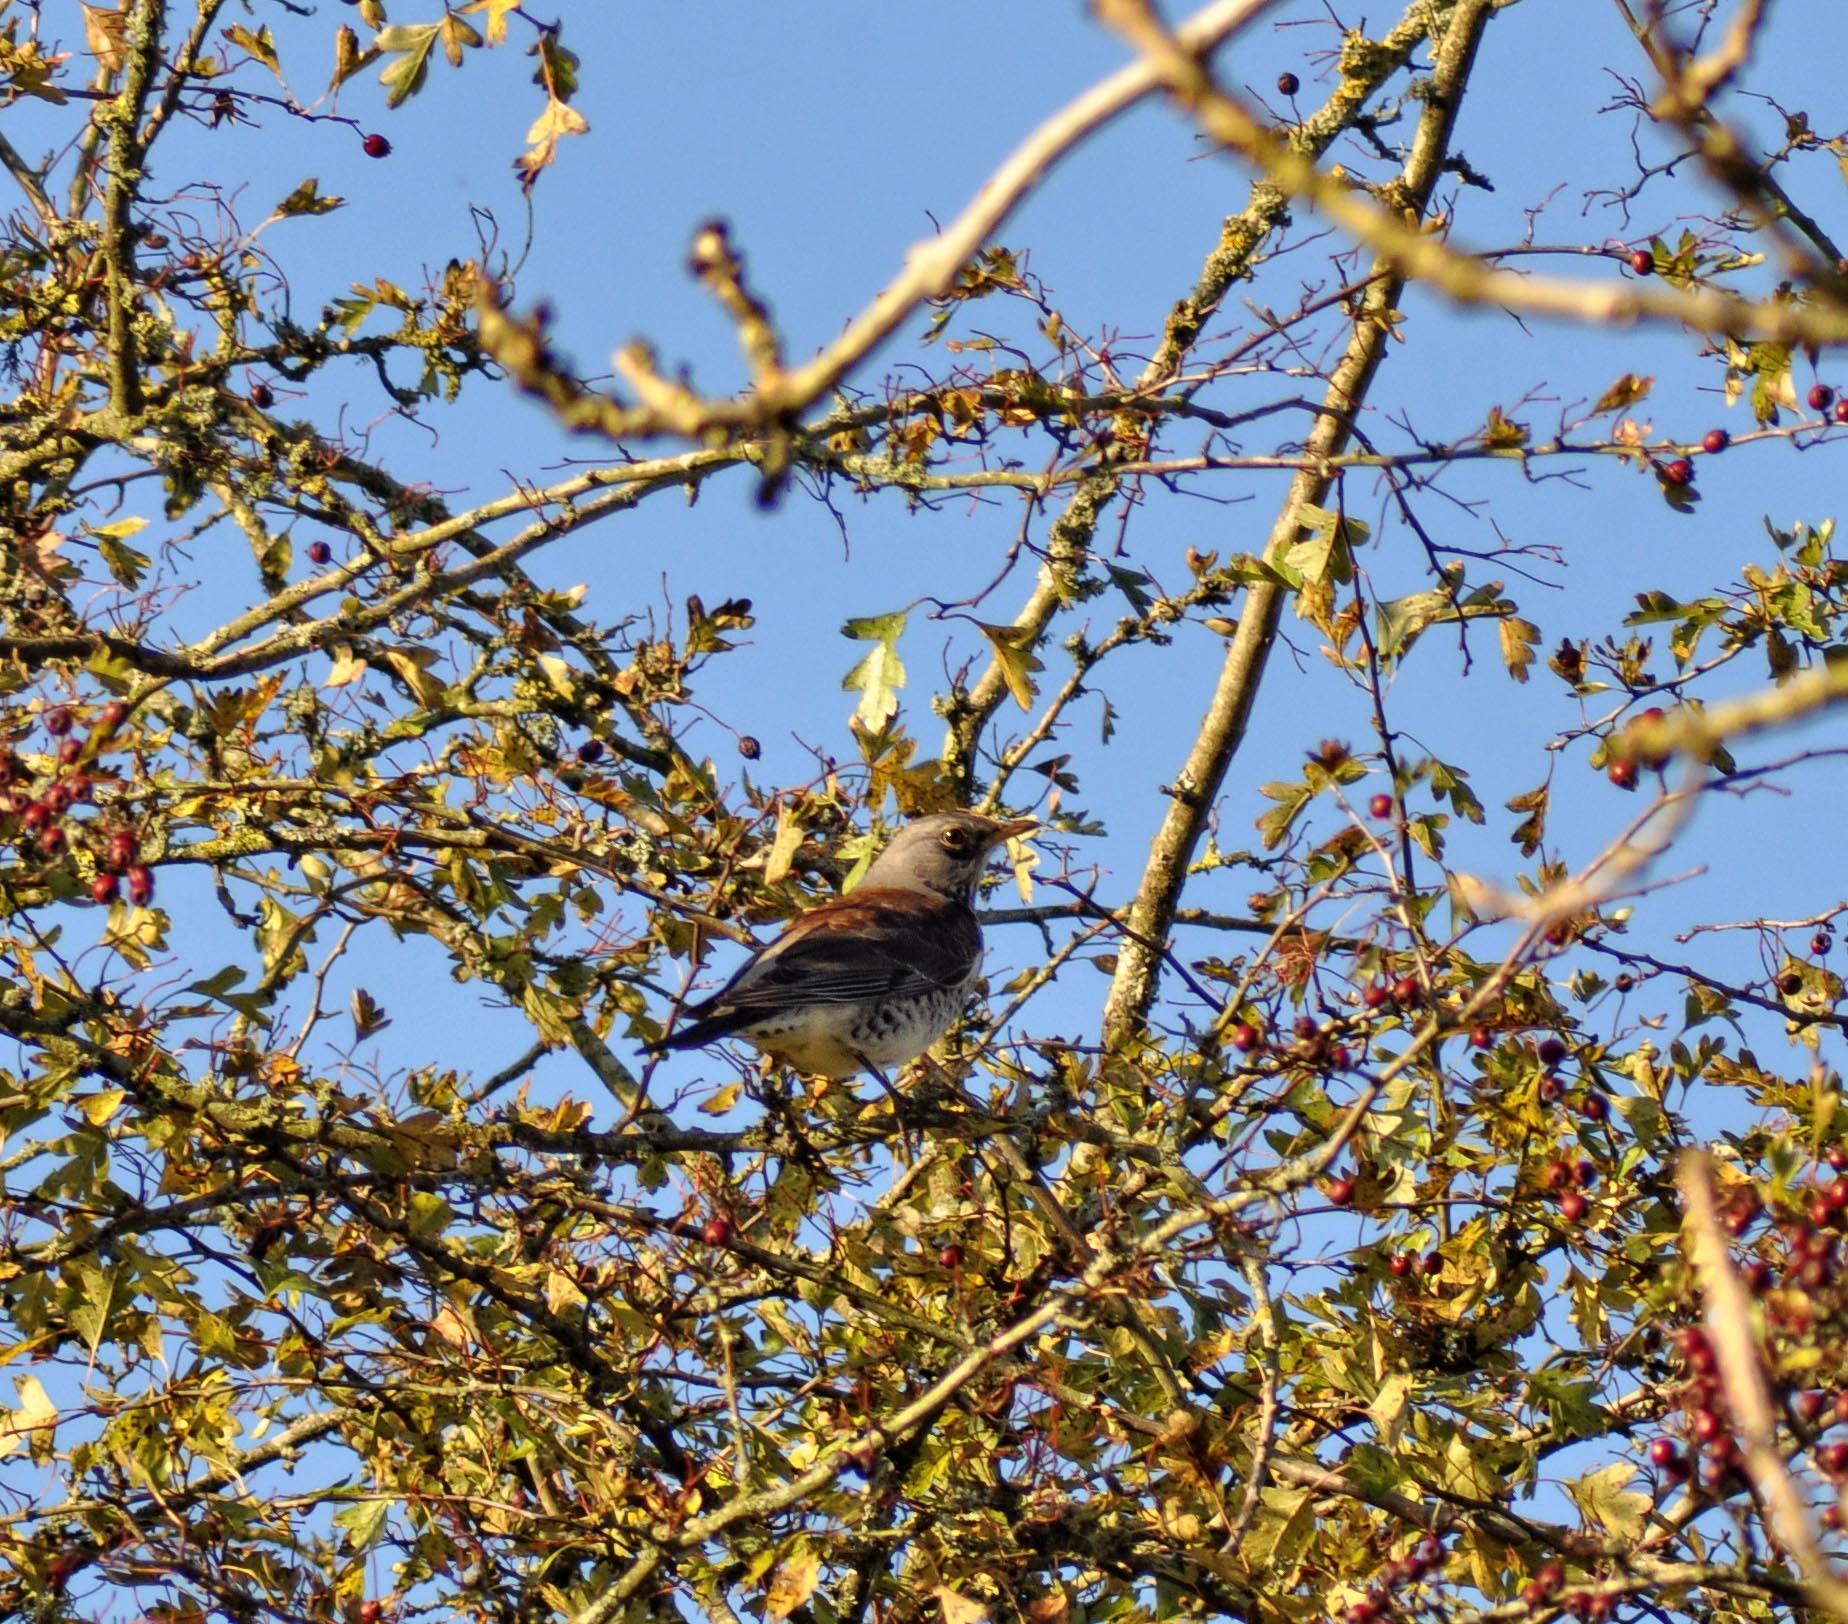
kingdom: Animalia
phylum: Chordata
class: Aves
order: Passeriformes
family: Turdidae
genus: Turdus
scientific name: Turdus pilaris
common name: Fieldfare
